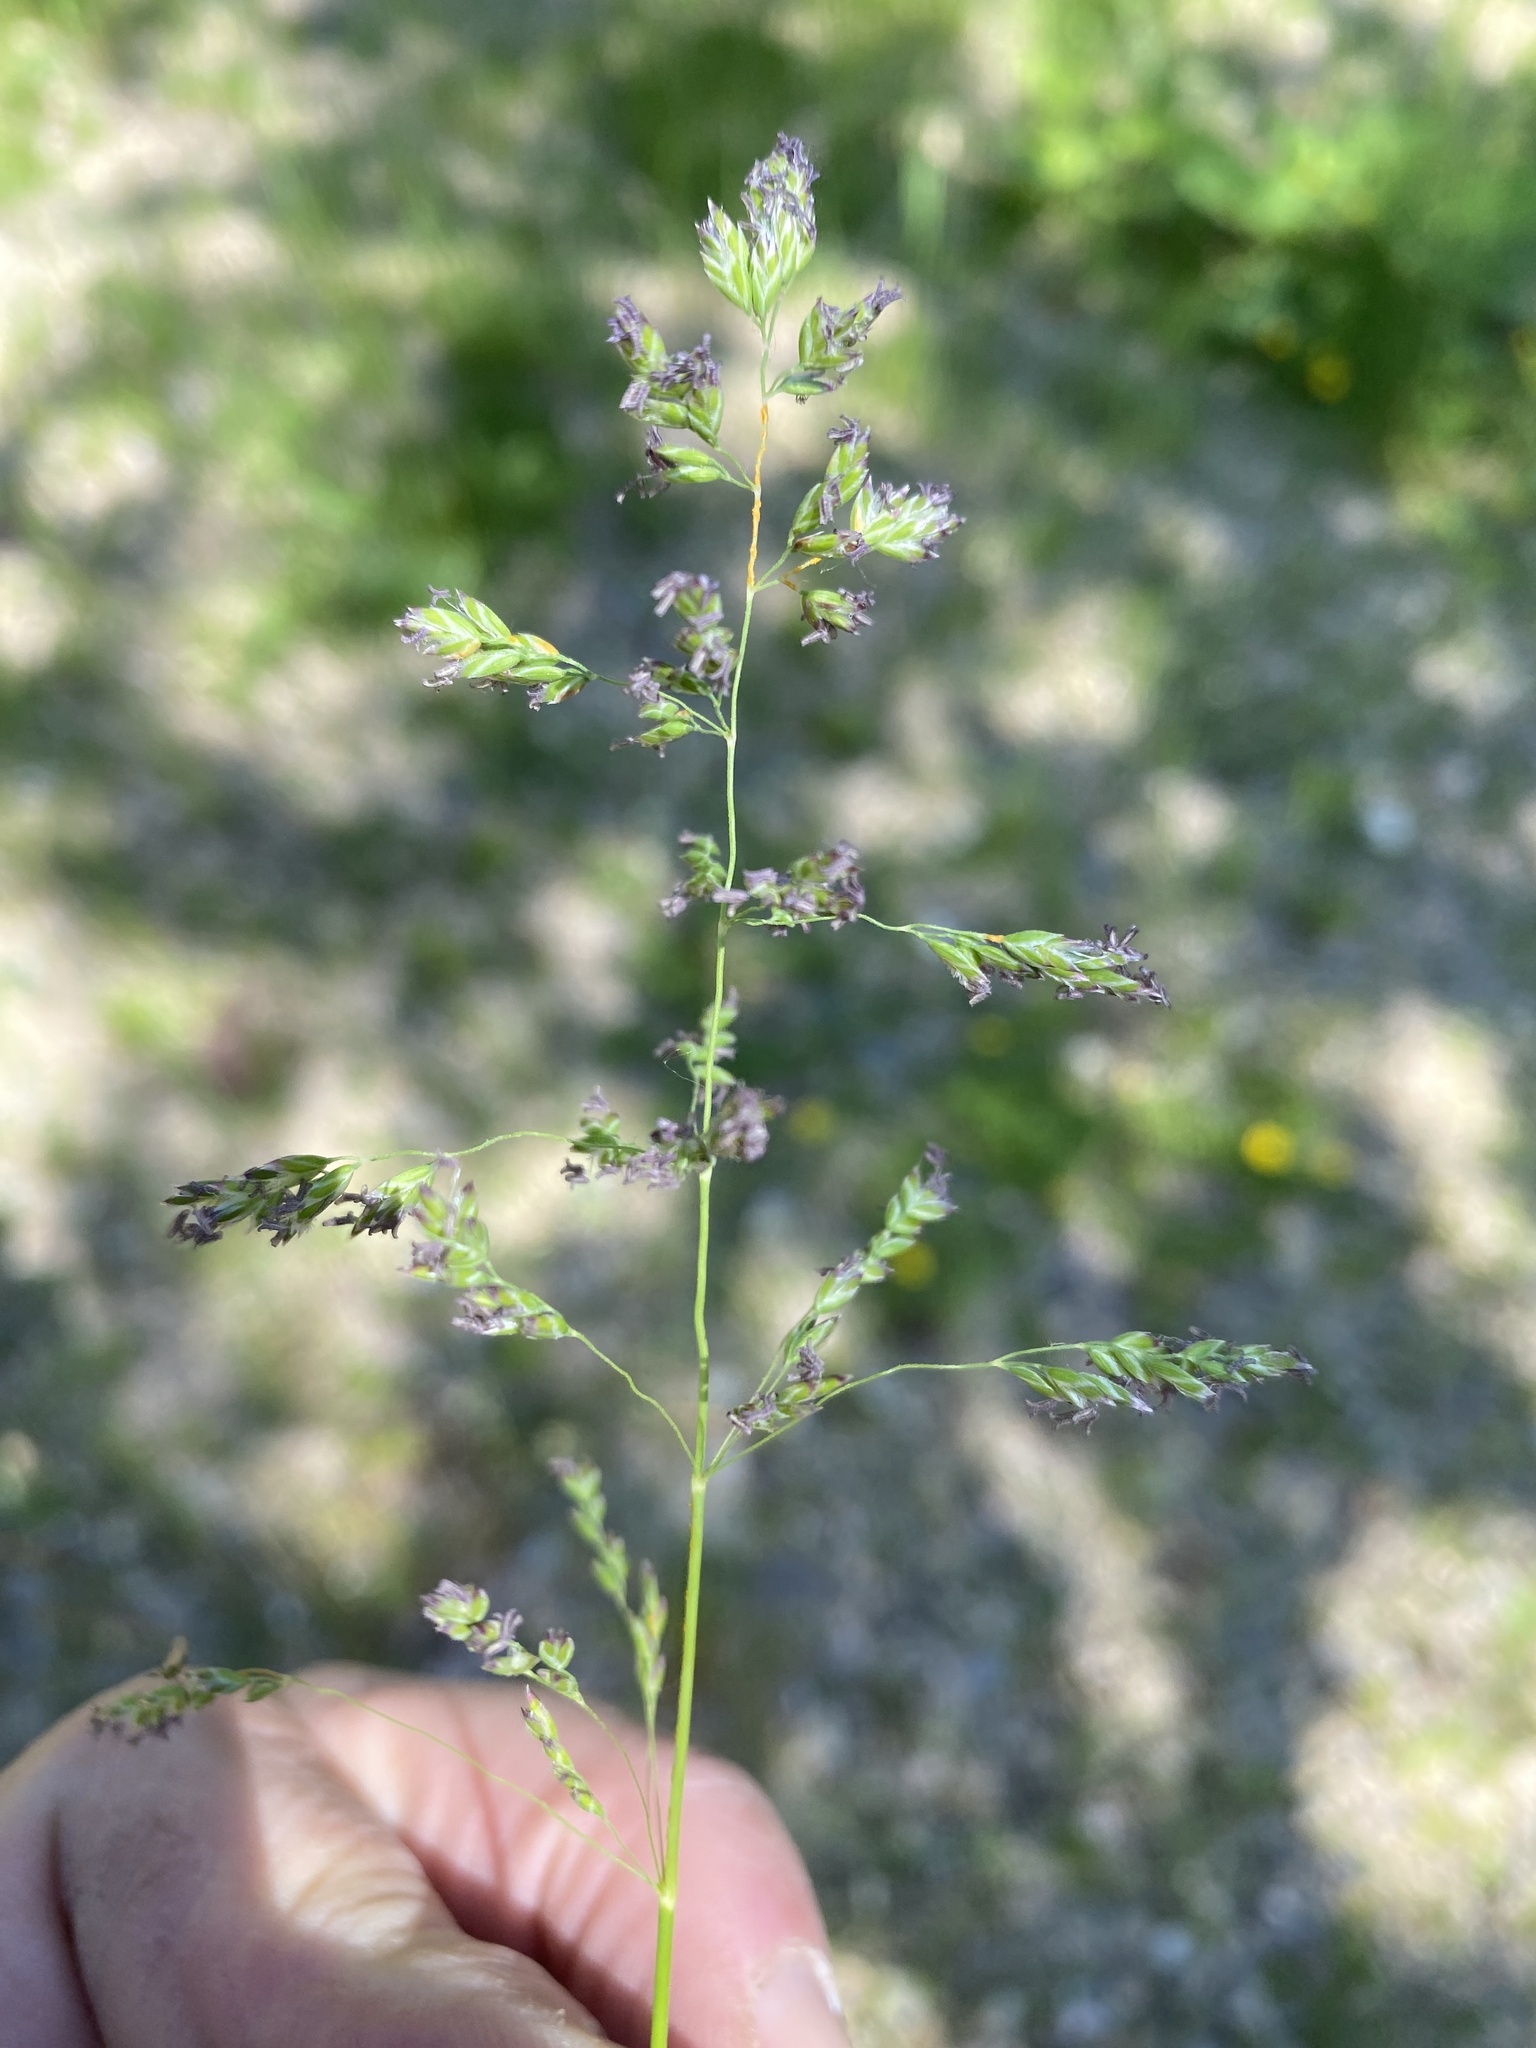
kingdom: Plantae
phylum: Tracheophyta
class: Liliopsida
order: Poales
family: Poaceae
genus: Poa
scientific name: Poa pratensis
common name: Kentucky bluegrass
